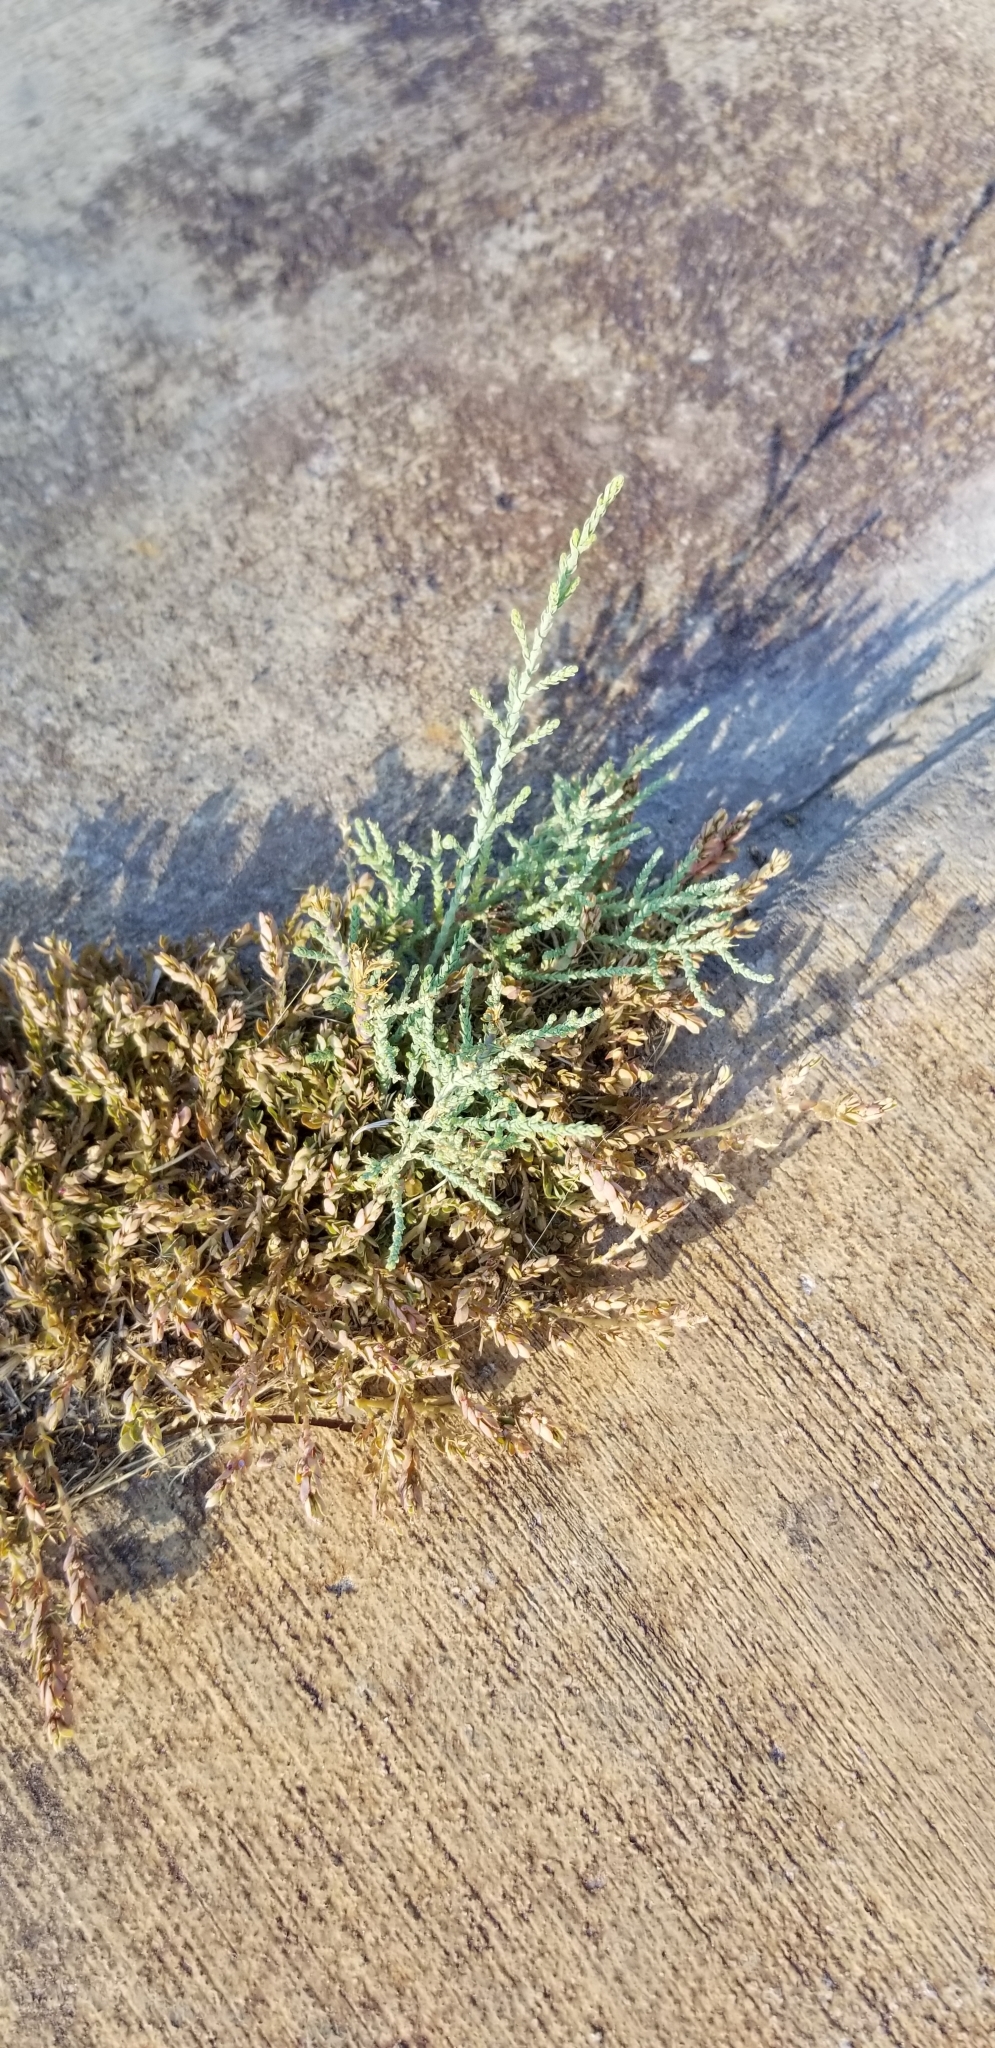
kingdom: Plantae
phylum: Tracheophyta
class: Magnoliopsida
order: Caryophyllales
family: Tamaricaceae
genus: Tamarix
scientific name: Tamarix ramosissima
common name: Pink tamarisk
